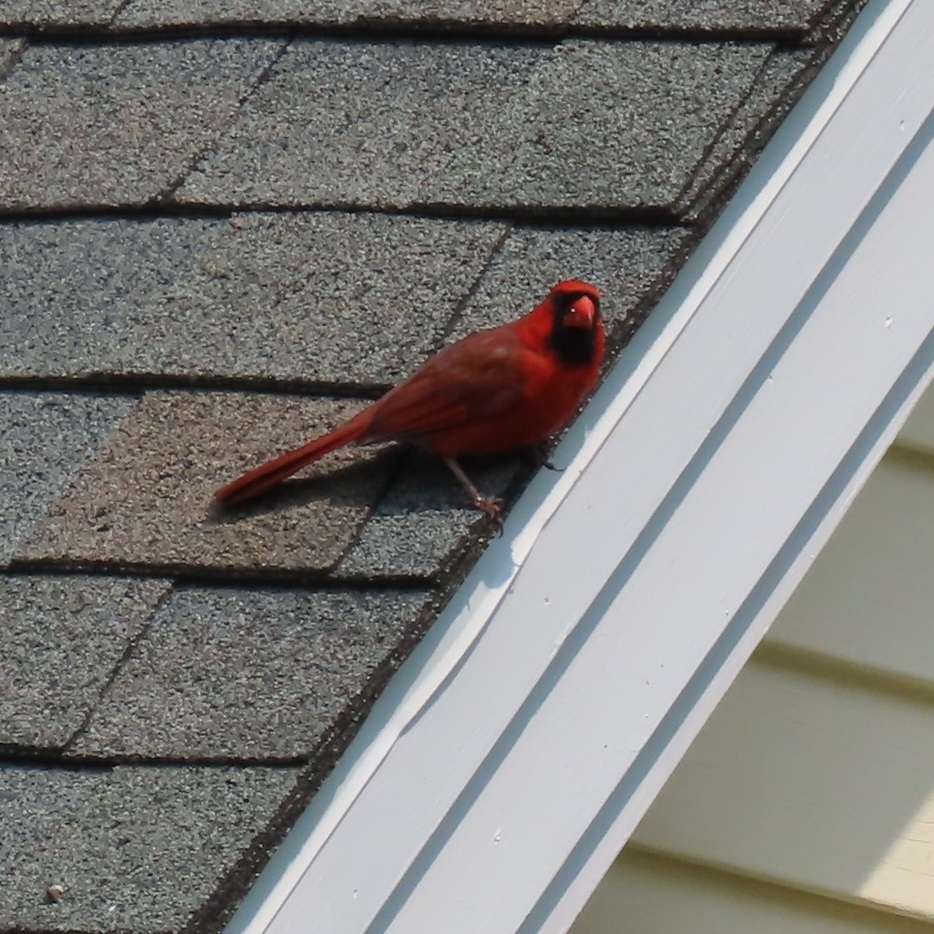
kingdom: Animalia
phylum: Chordata
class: Aves
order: Passeriformes
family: Cardinalidae
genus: Cardinalis
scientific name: Cardinalis cardinalis
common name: Northern cardinal
